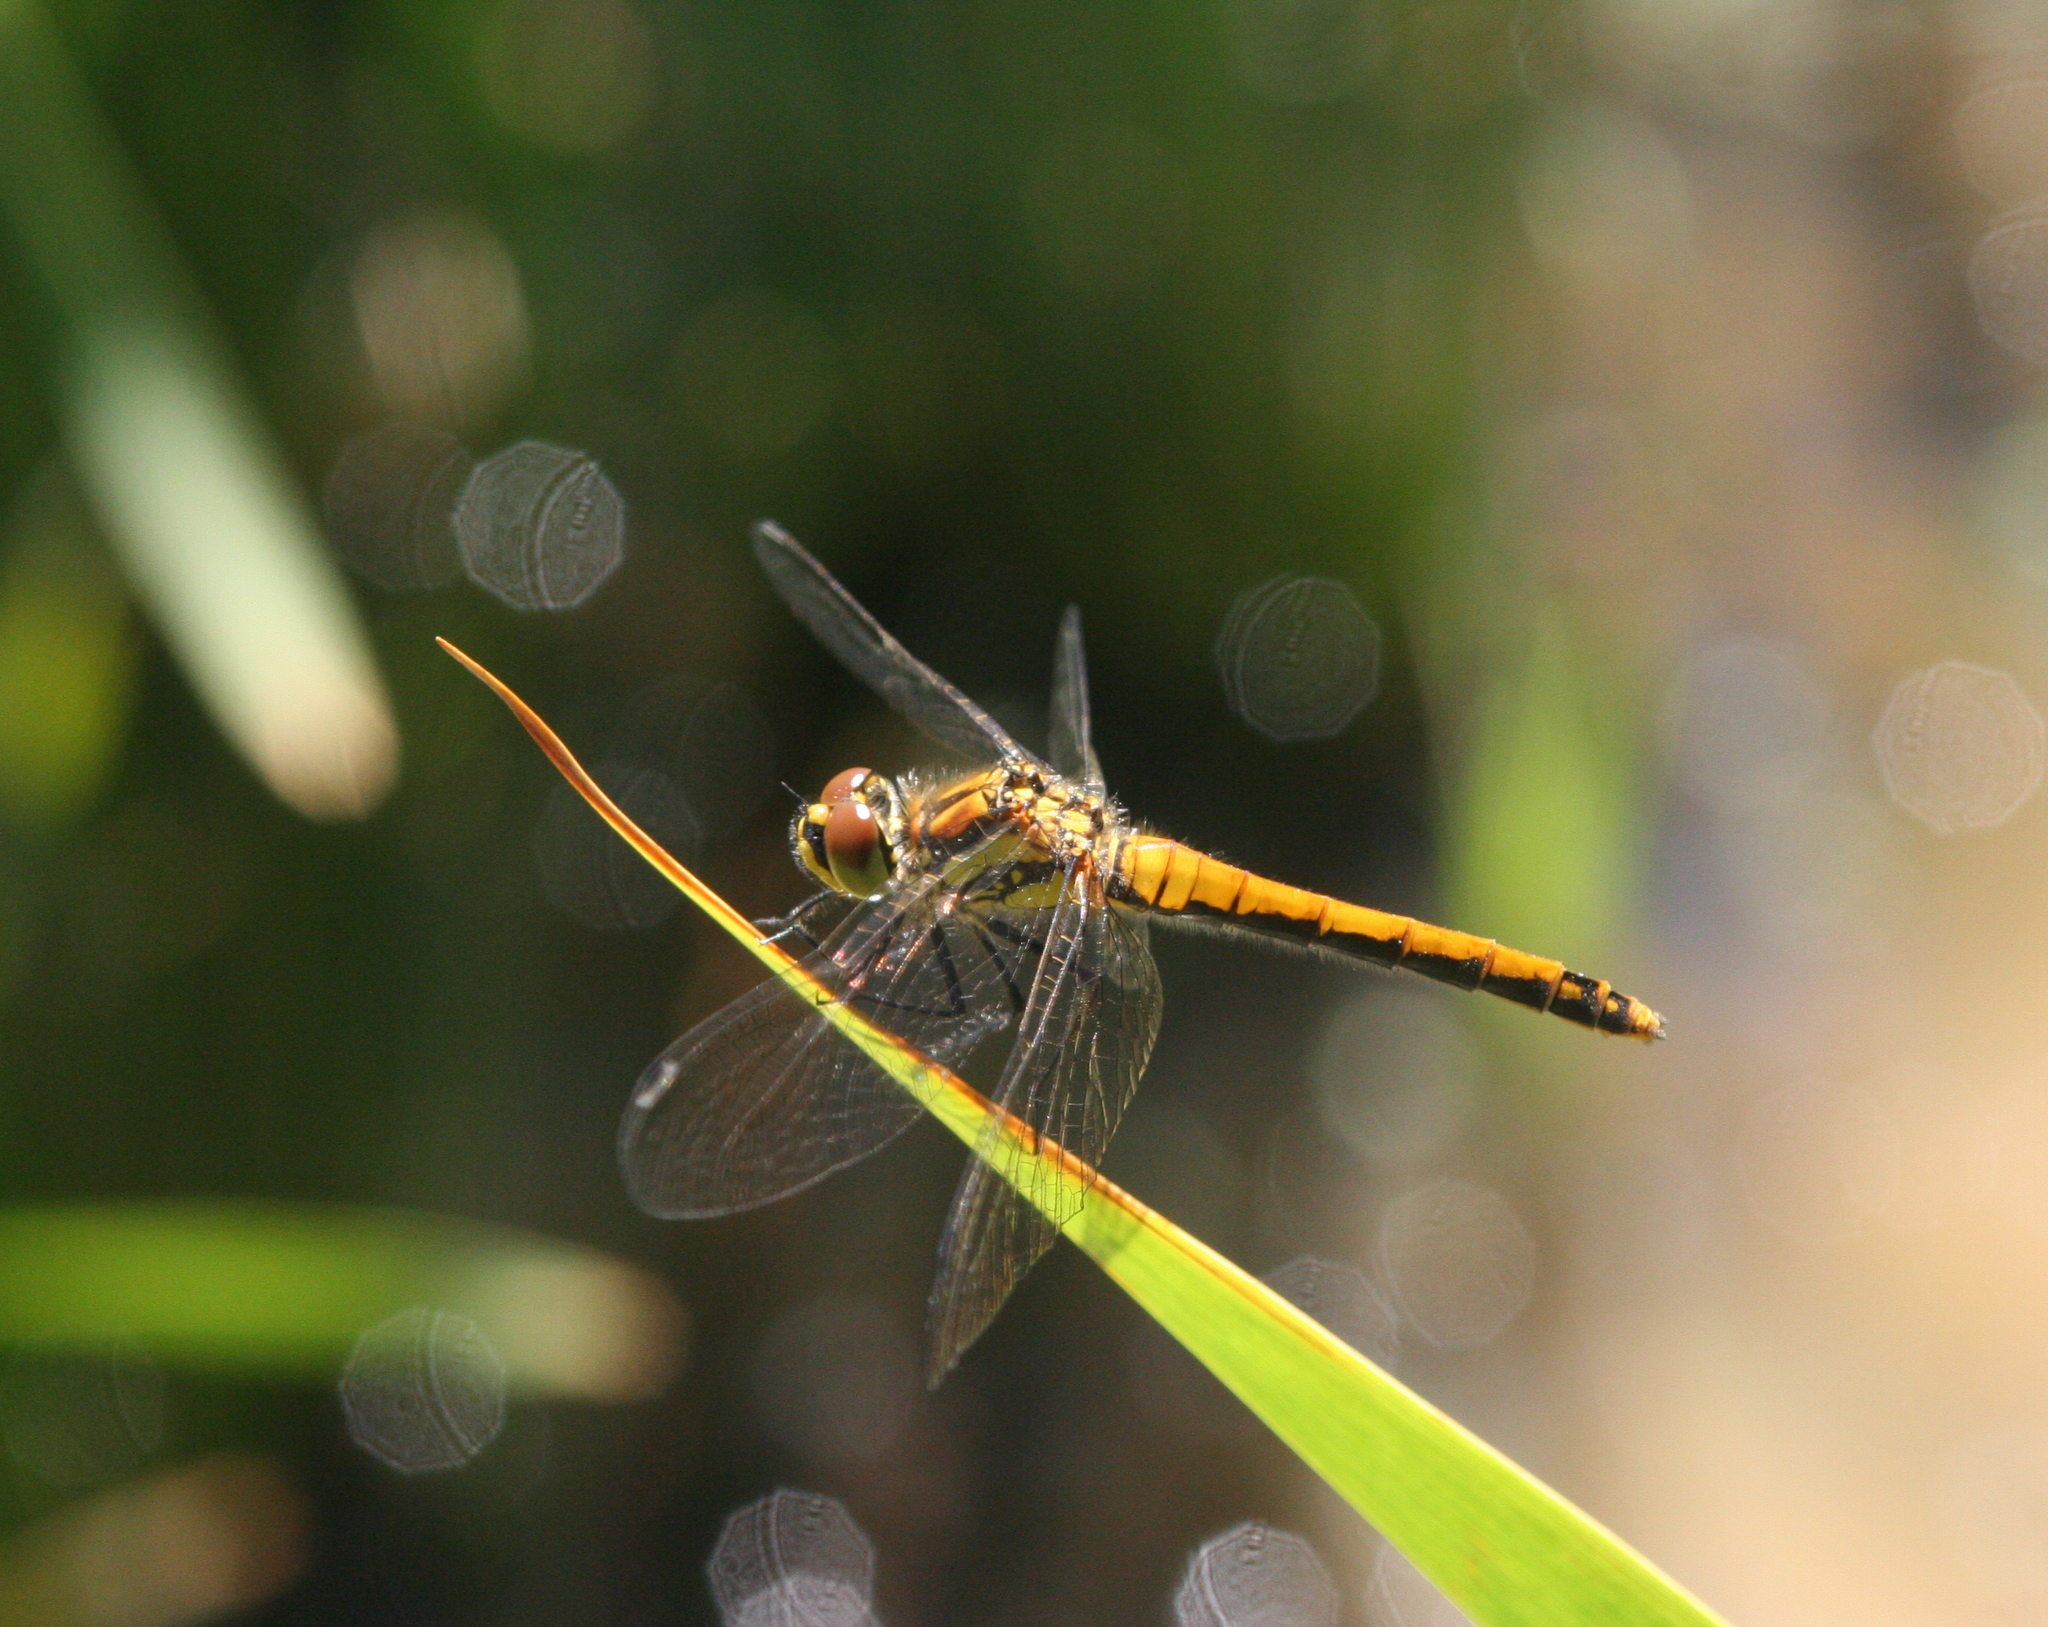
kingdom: Animalia
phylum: Arthropoda
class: Insecta
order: Odonata
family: Libellulidae
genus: Sympetrum
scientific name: Sympetrum danae
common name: Black darter
